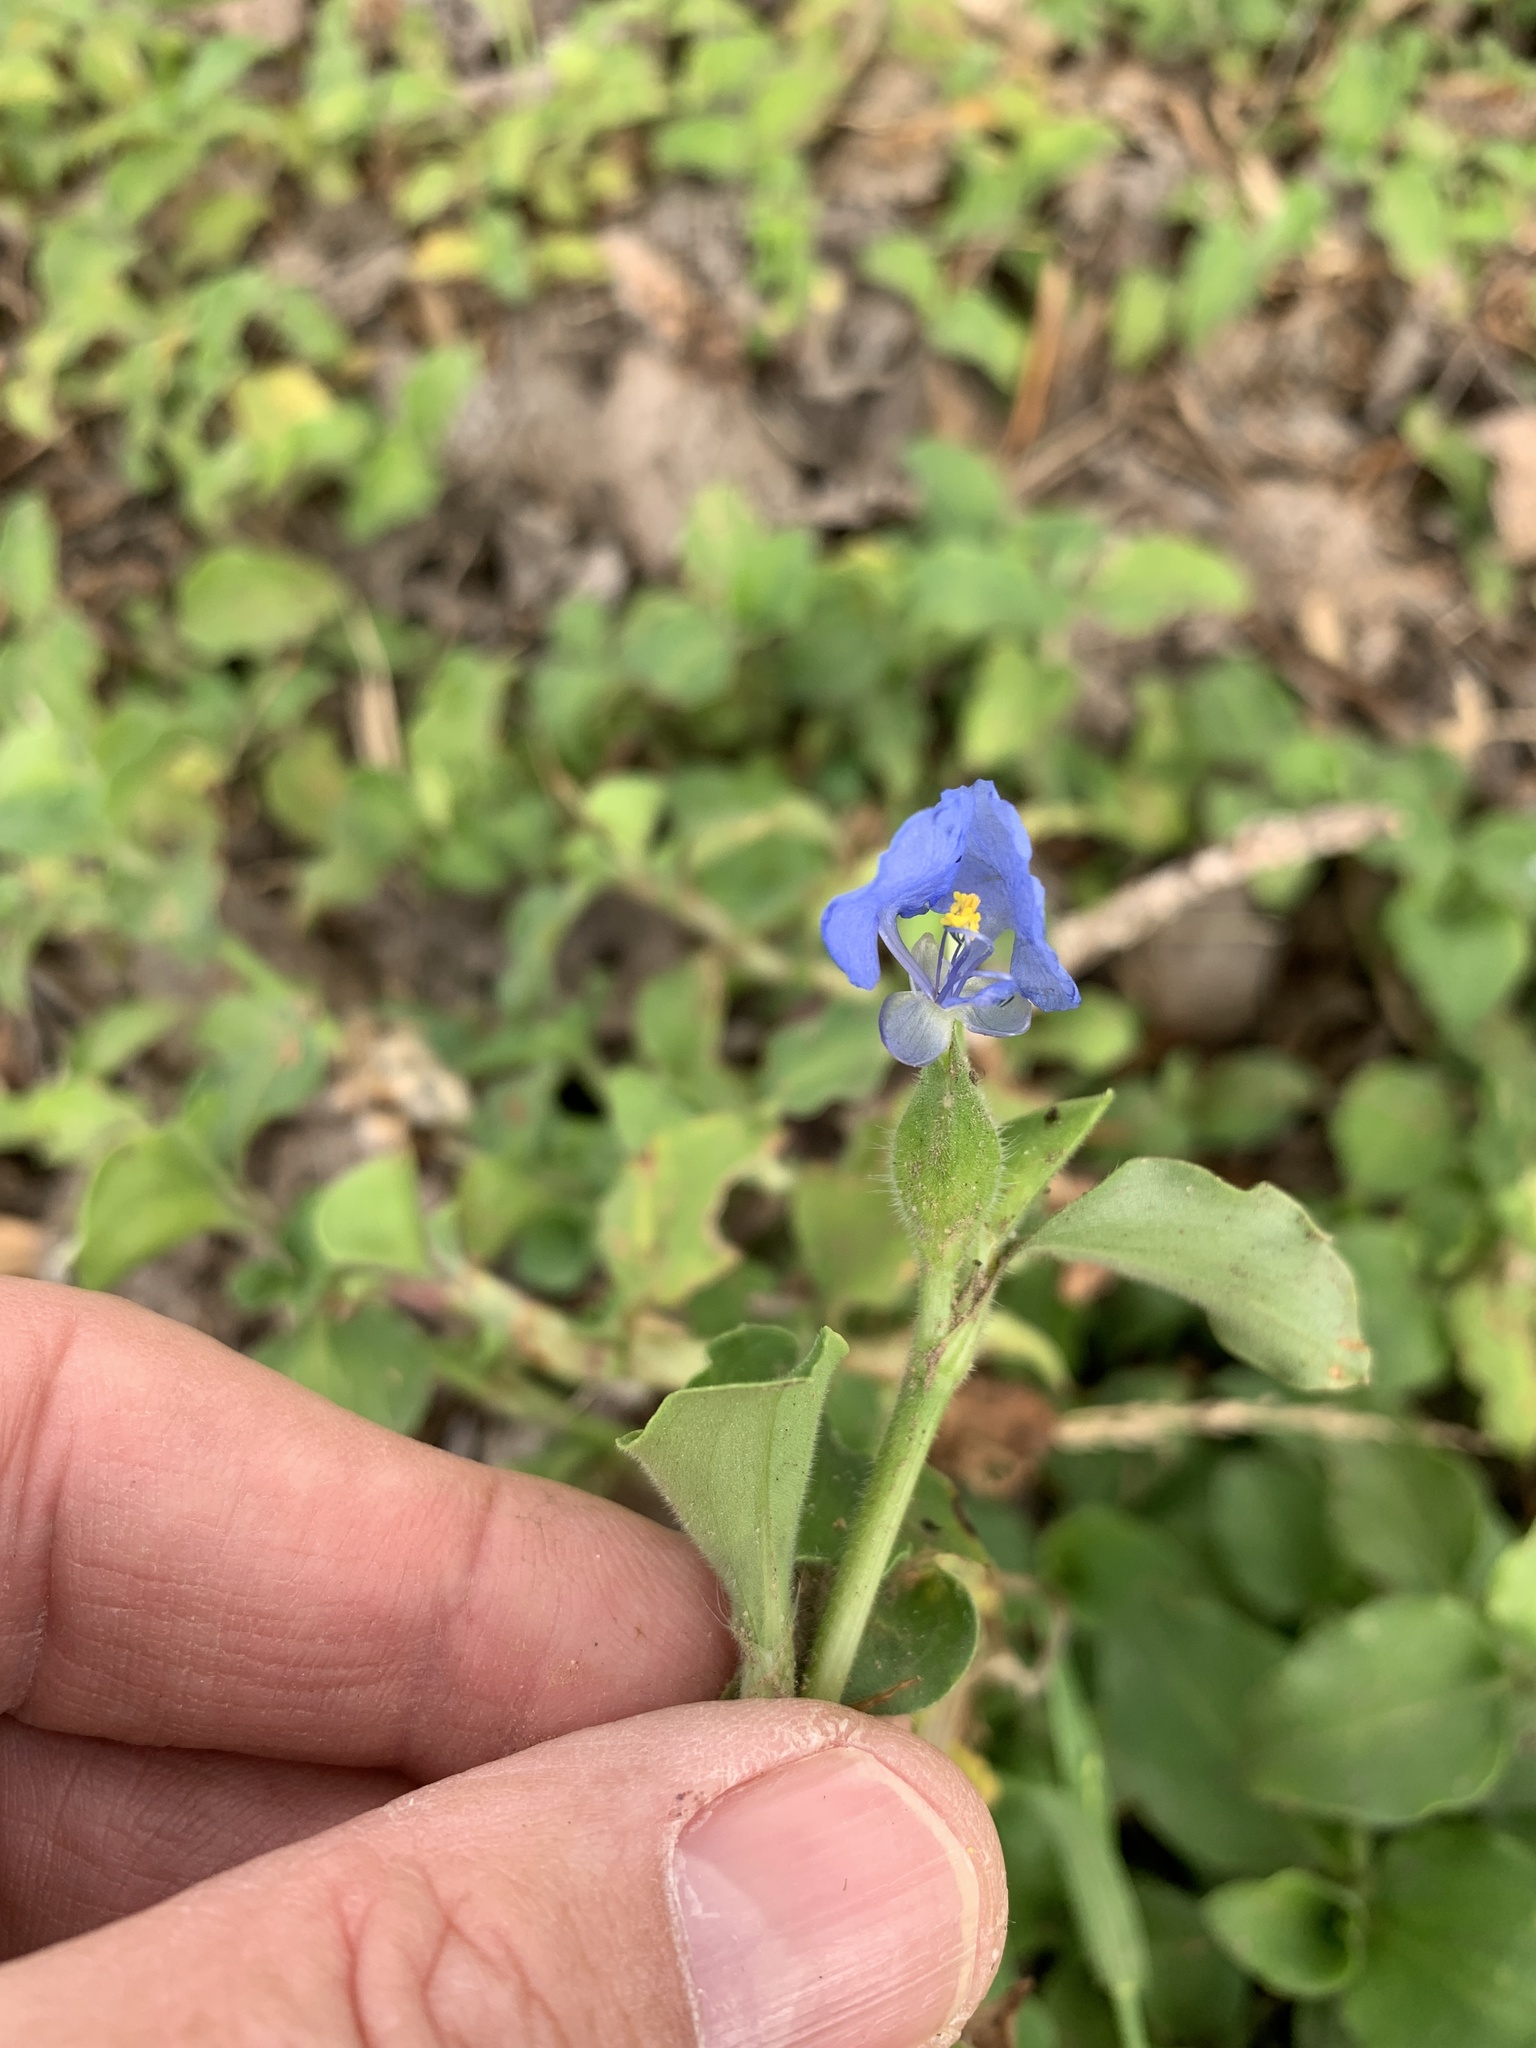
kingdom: Plantae
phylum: Tracheophyta
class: Liliopsida
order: Commelinales
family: Commelinaceae
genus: Commelina
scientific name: Commelina benghalensis
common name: Jio
